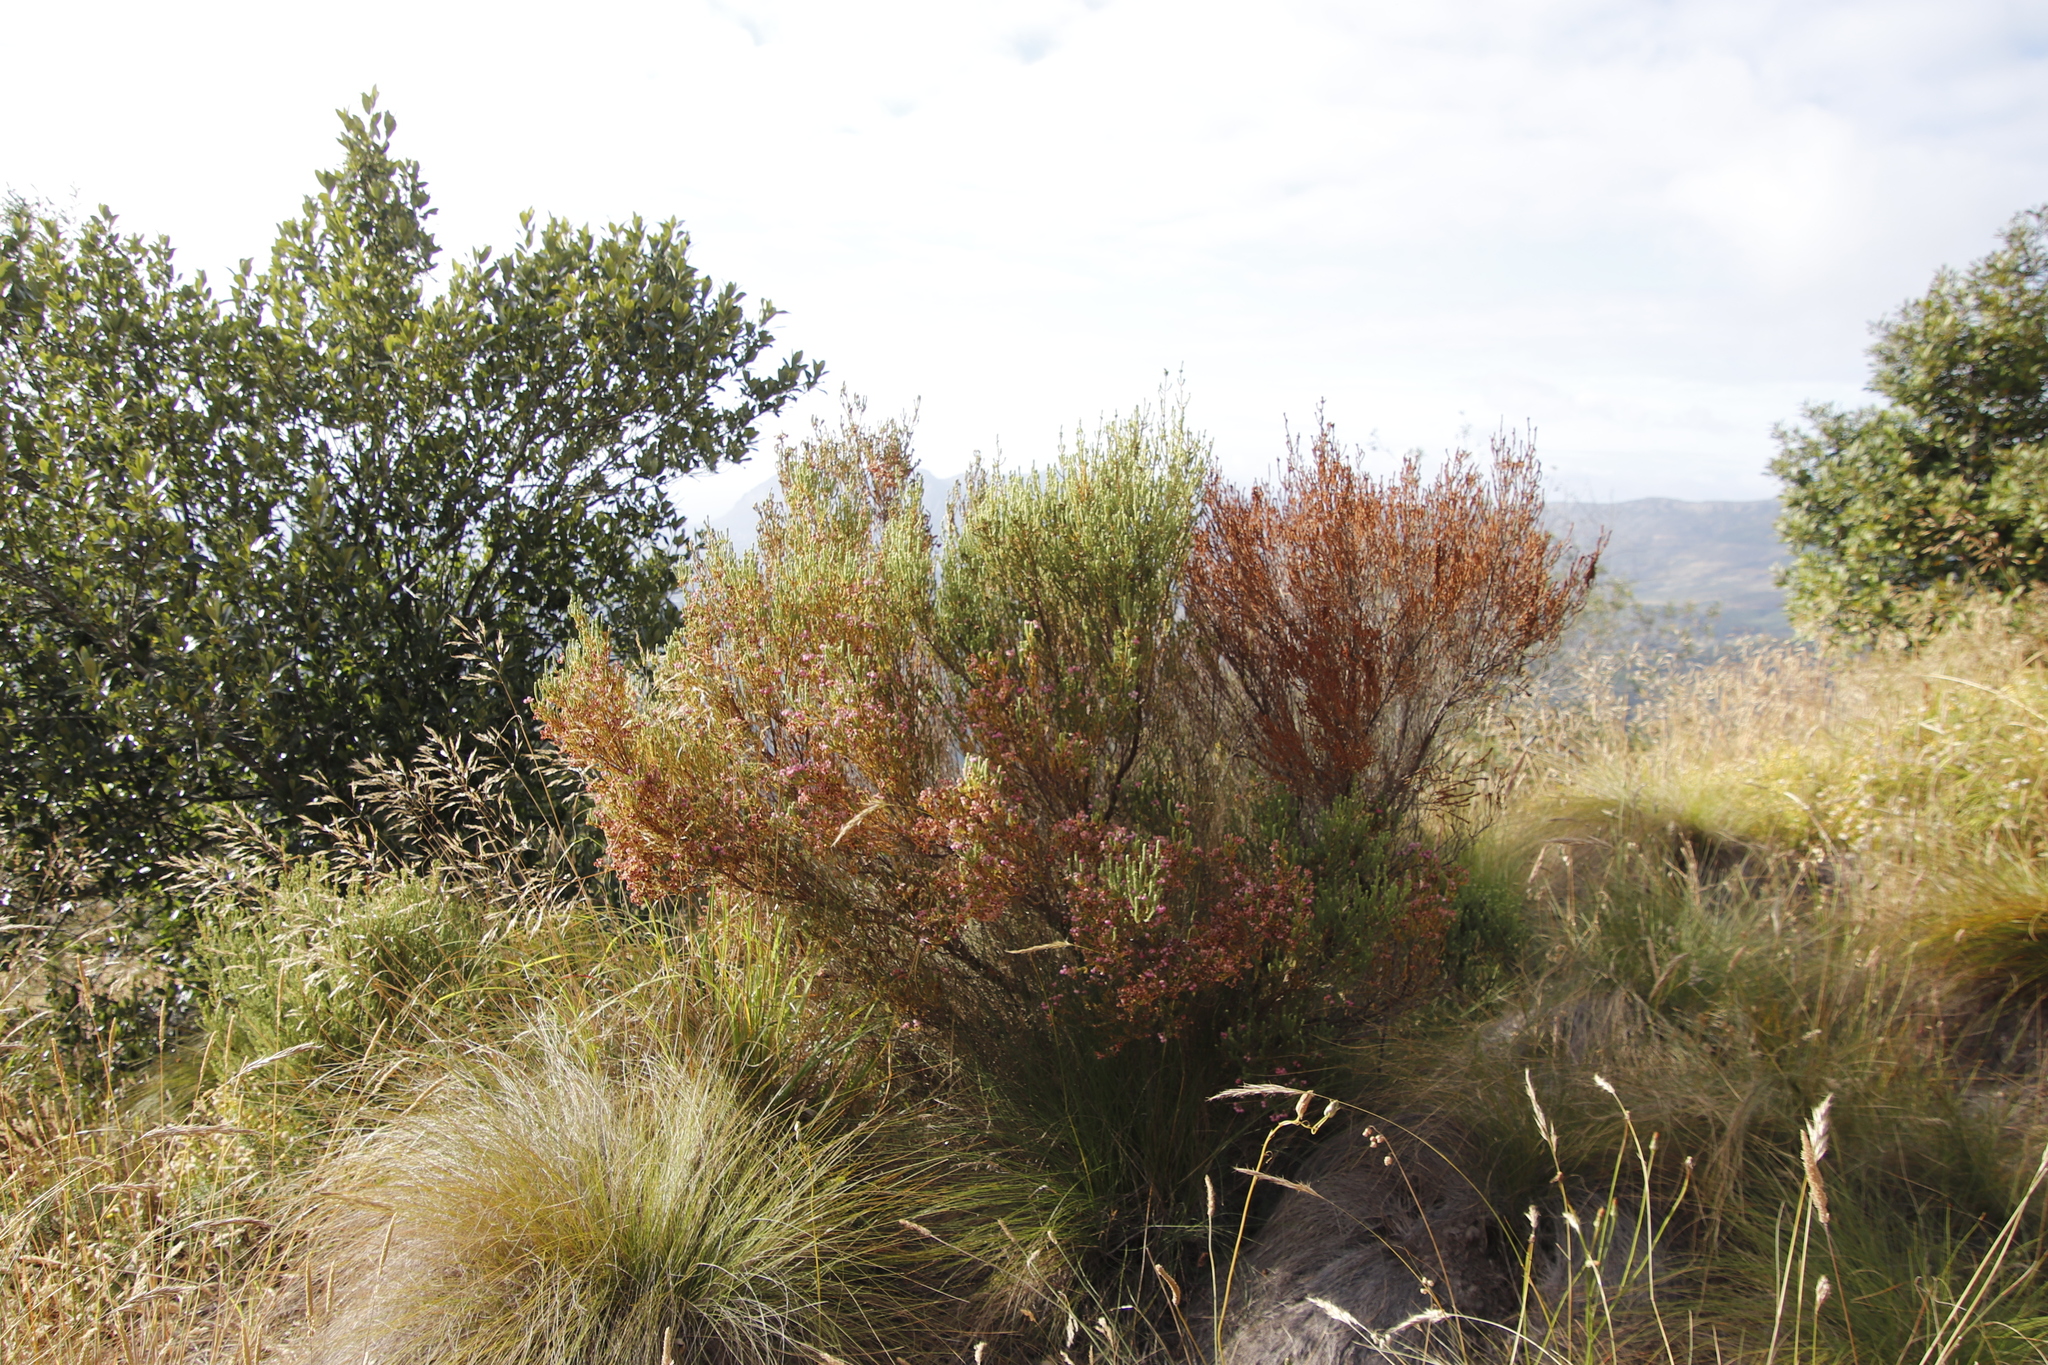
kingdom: Plantae
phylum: Tracheophyta
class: Magnoliopsida
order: Ericales
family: Ericaceae
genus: Erica
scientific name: Erica baccans
